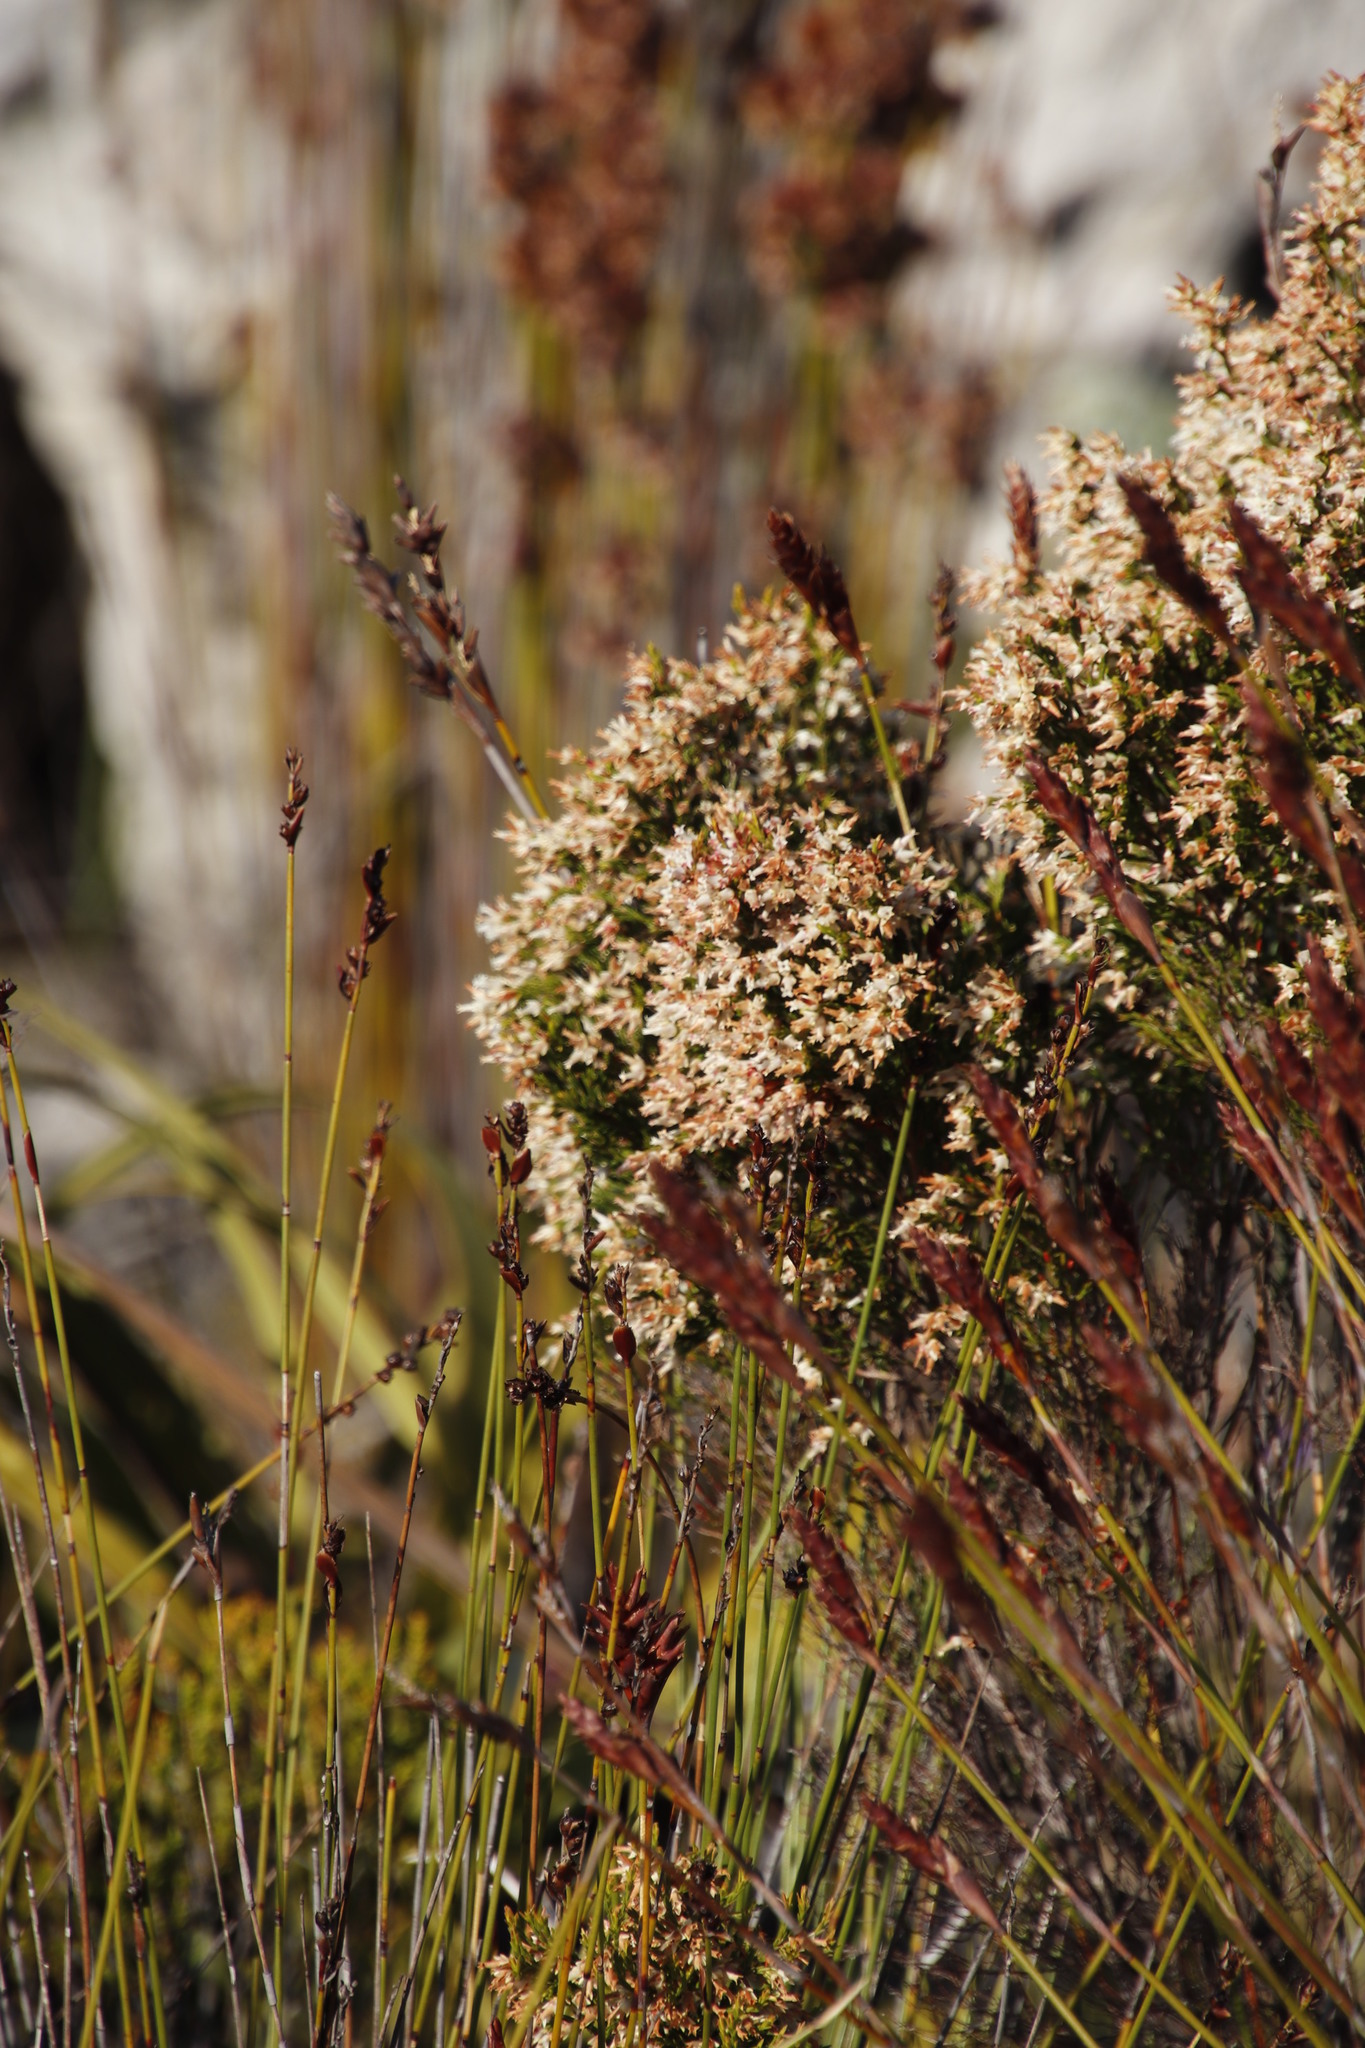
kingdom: Plantae
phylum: Tracheophyta
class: Magnoliopsida
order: Ericales
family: Ericaceae
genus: Erica
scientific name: Erica lutea
